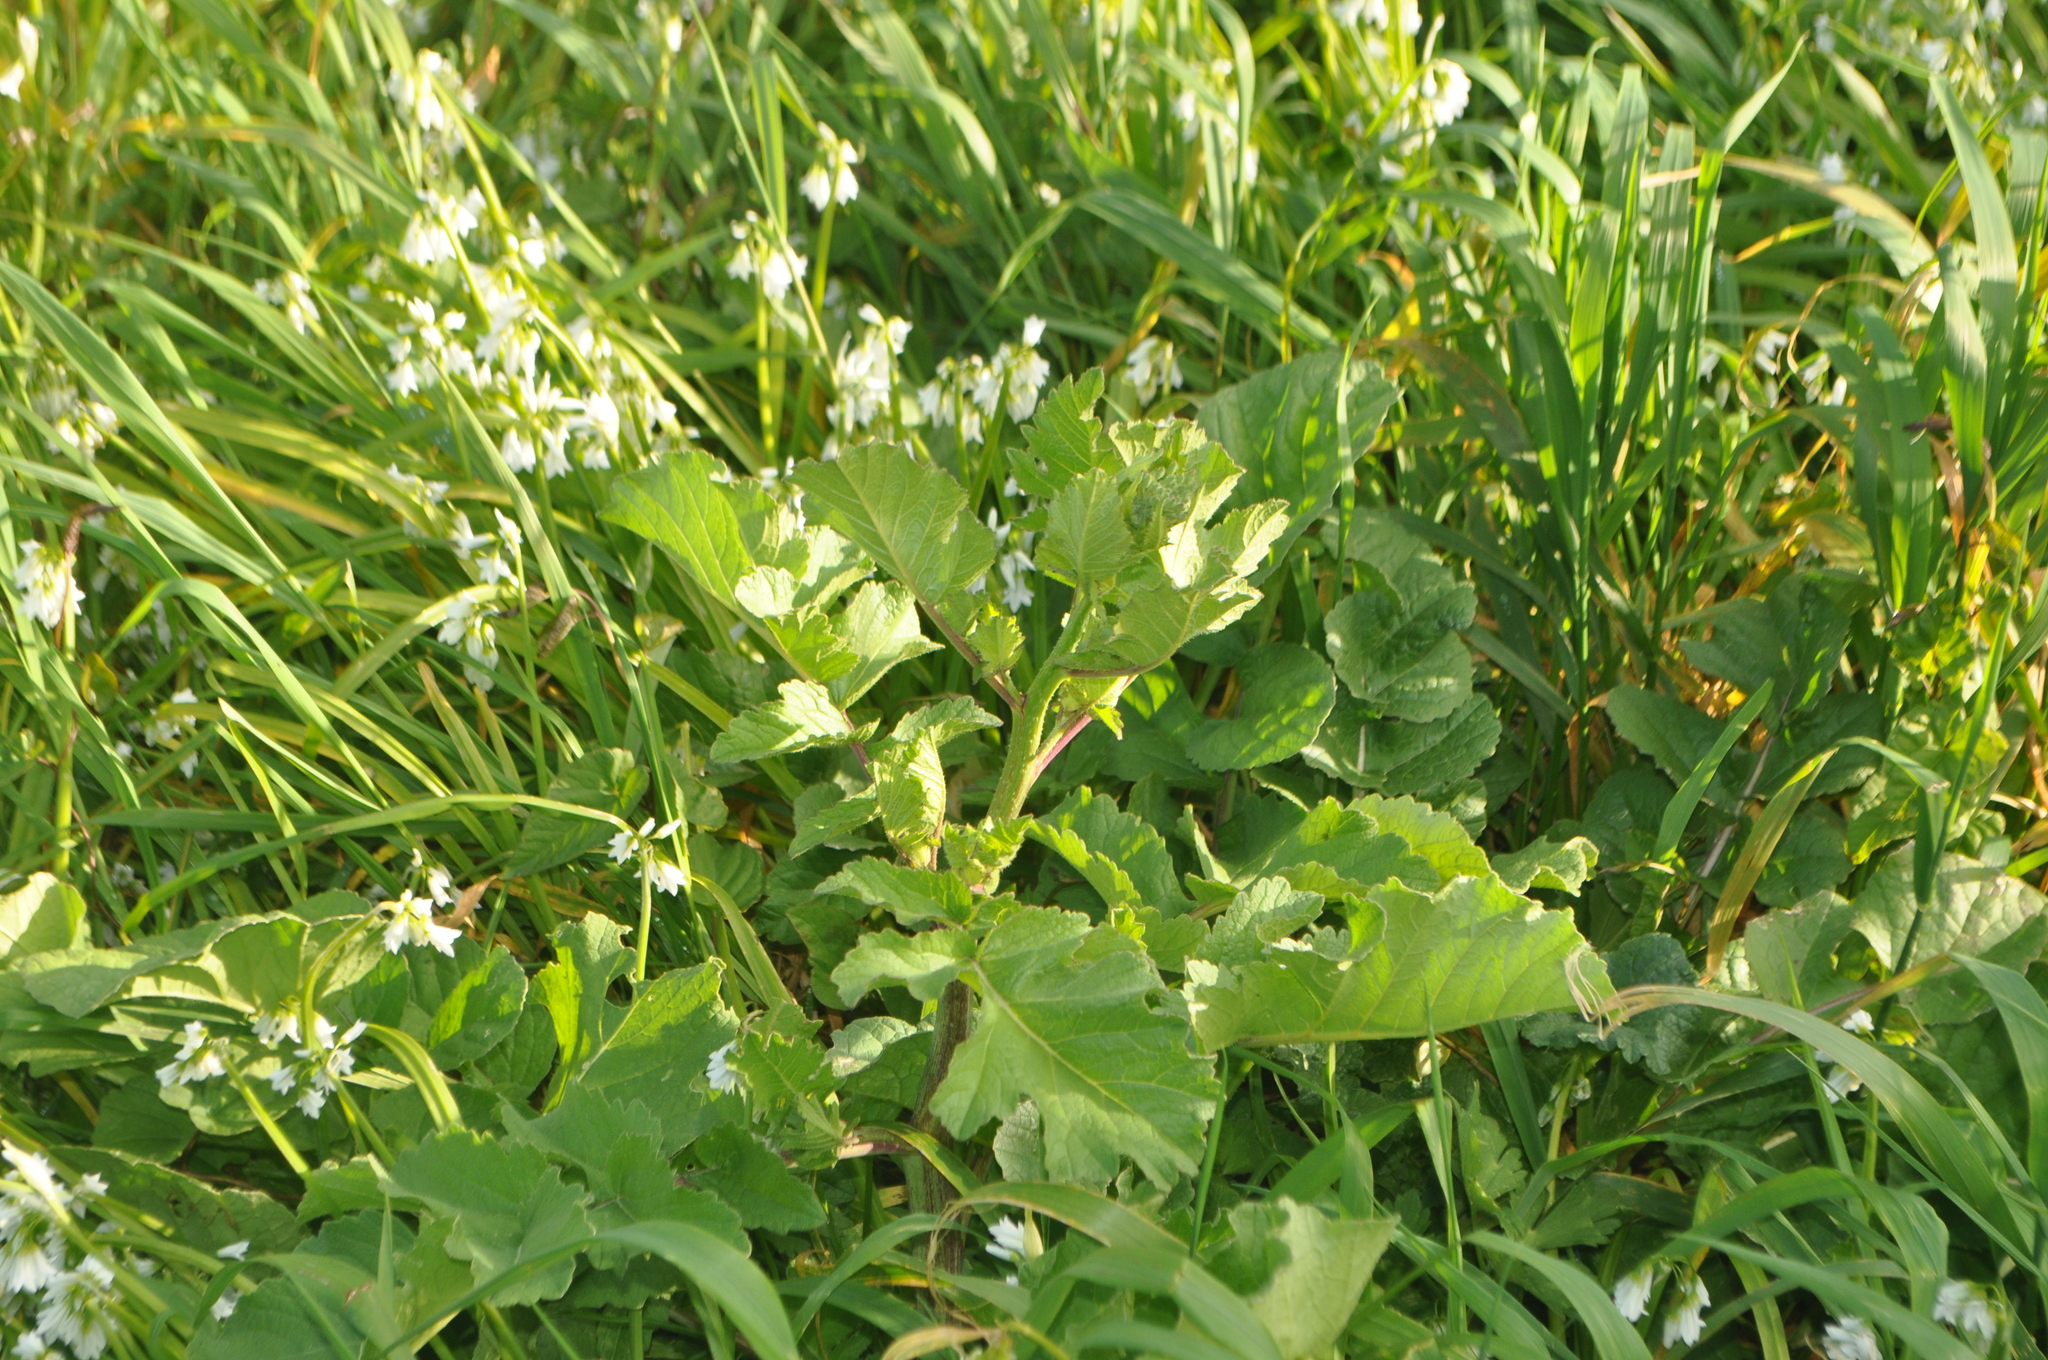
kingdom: Plantae
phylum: Tracheophyta
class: Magnoliopsida
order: Brassicales
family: Brassicaceae
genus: Raphanus
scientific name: Raphanus raphanistrum
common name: Wild radish
